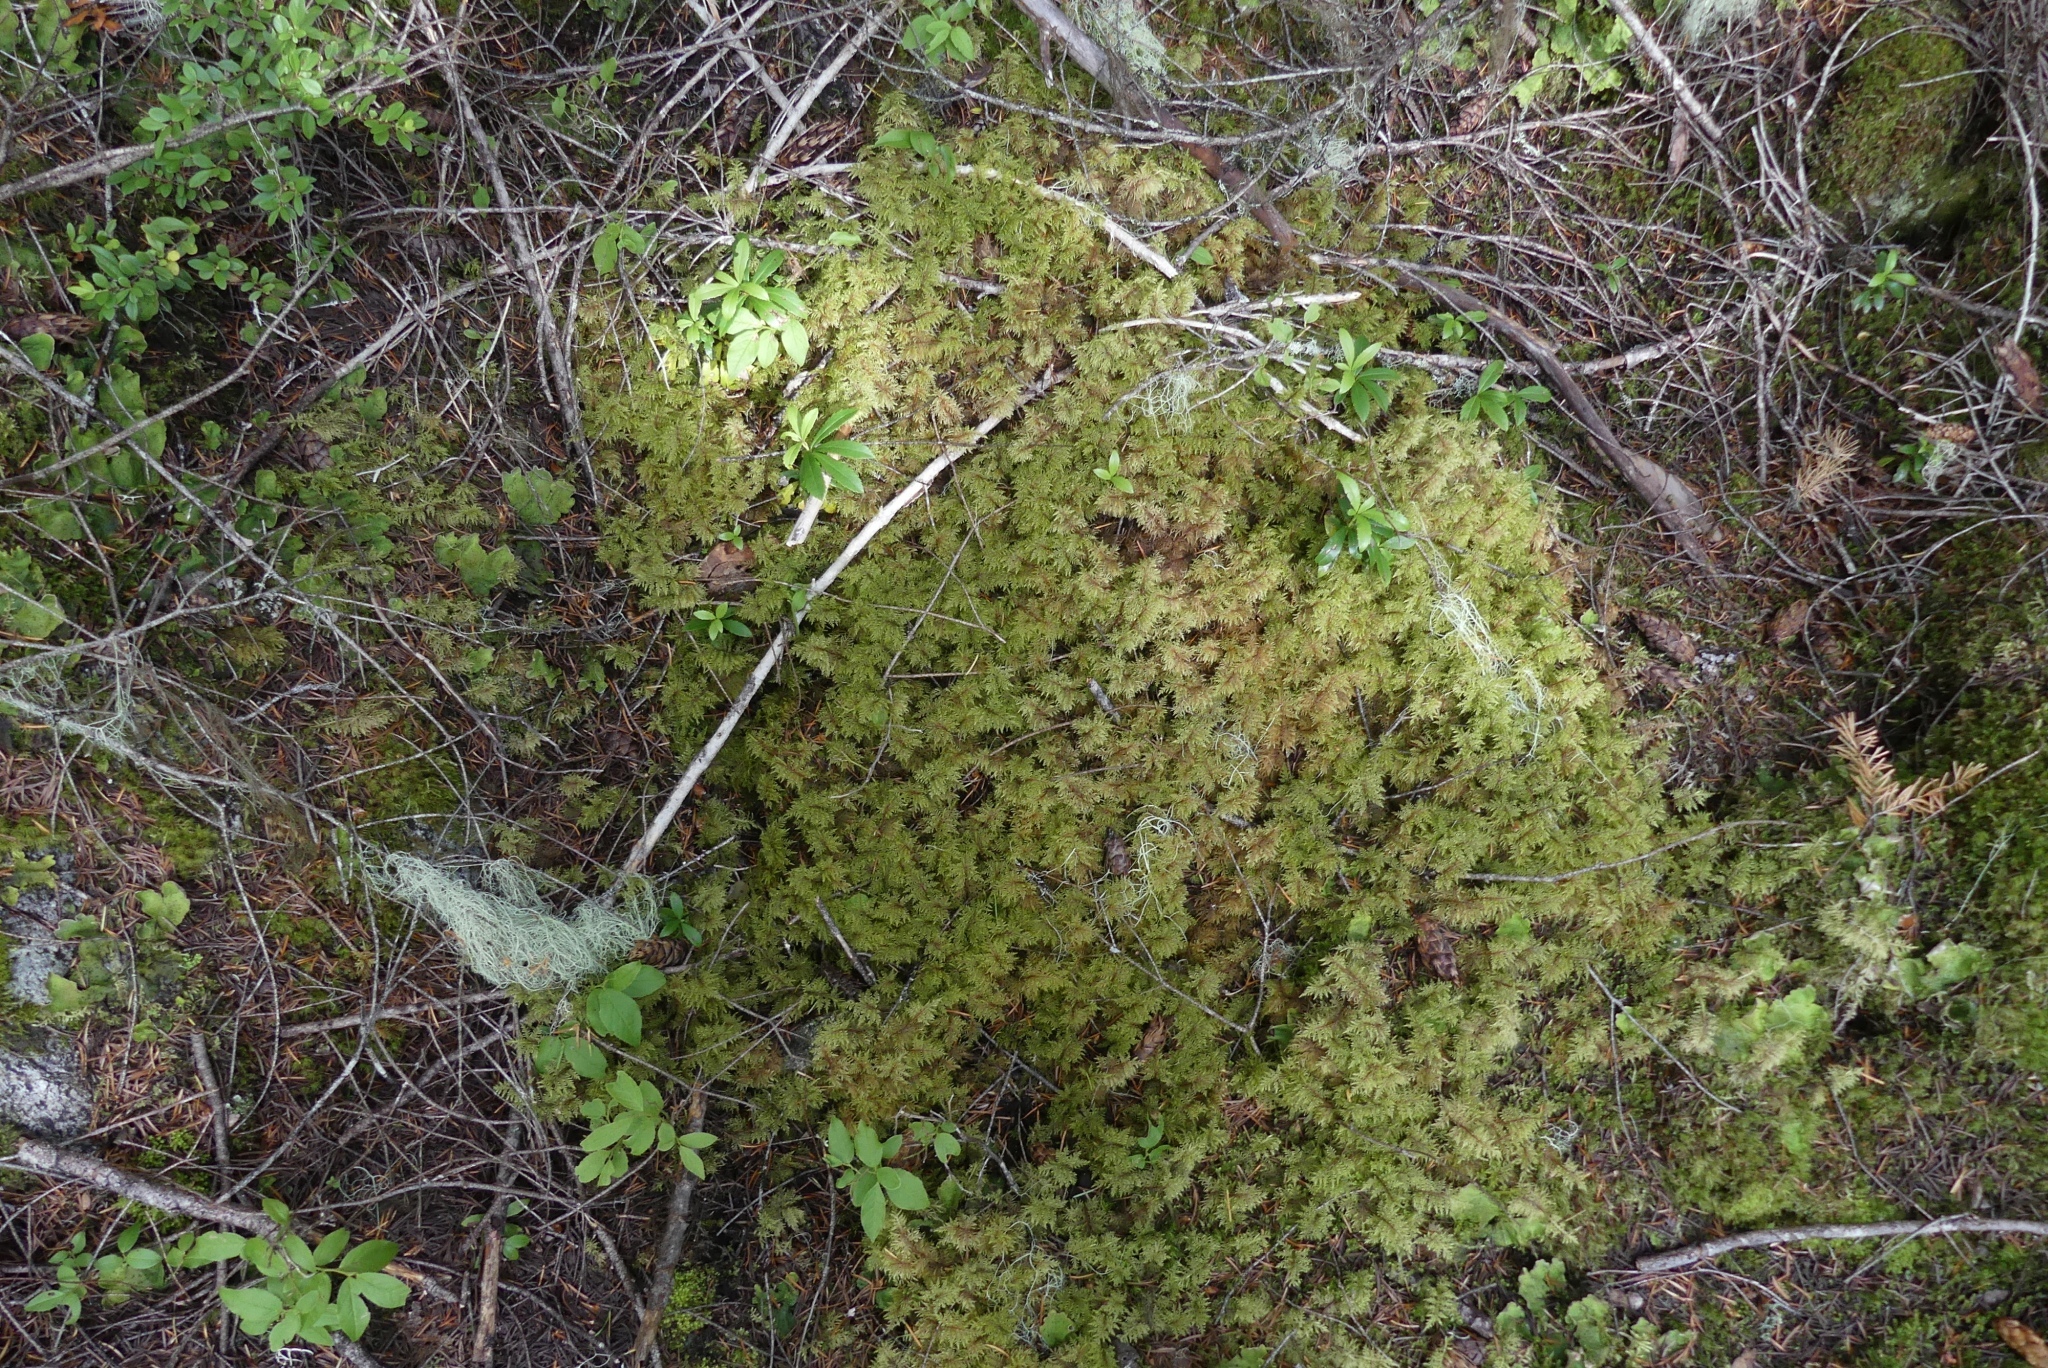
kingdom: Plantae
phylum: Bryophyta
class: Bryopsida
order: Hypnales
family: Hylocomiaceae
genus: Hylocomium
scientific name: Hylocomium splendens
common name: Stairstep moss
